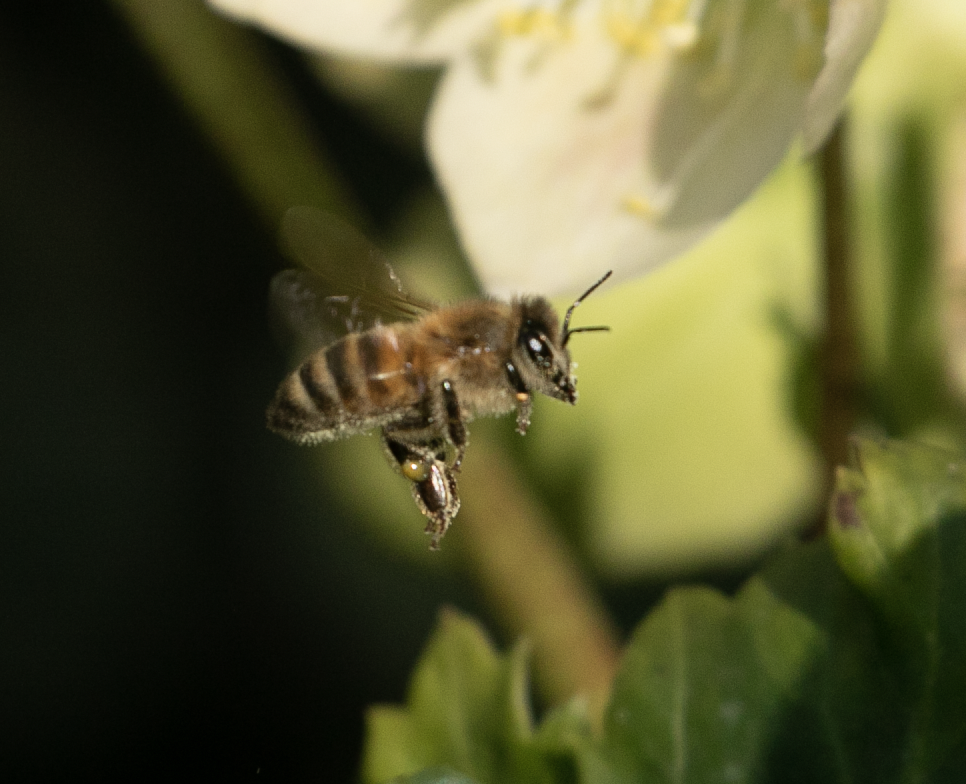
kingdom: Animalia
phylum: Arthropoda
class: Insecta
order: Hymenoptera
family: Apidae
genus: Apis
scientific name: Apis mellifera
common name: Honey bee
